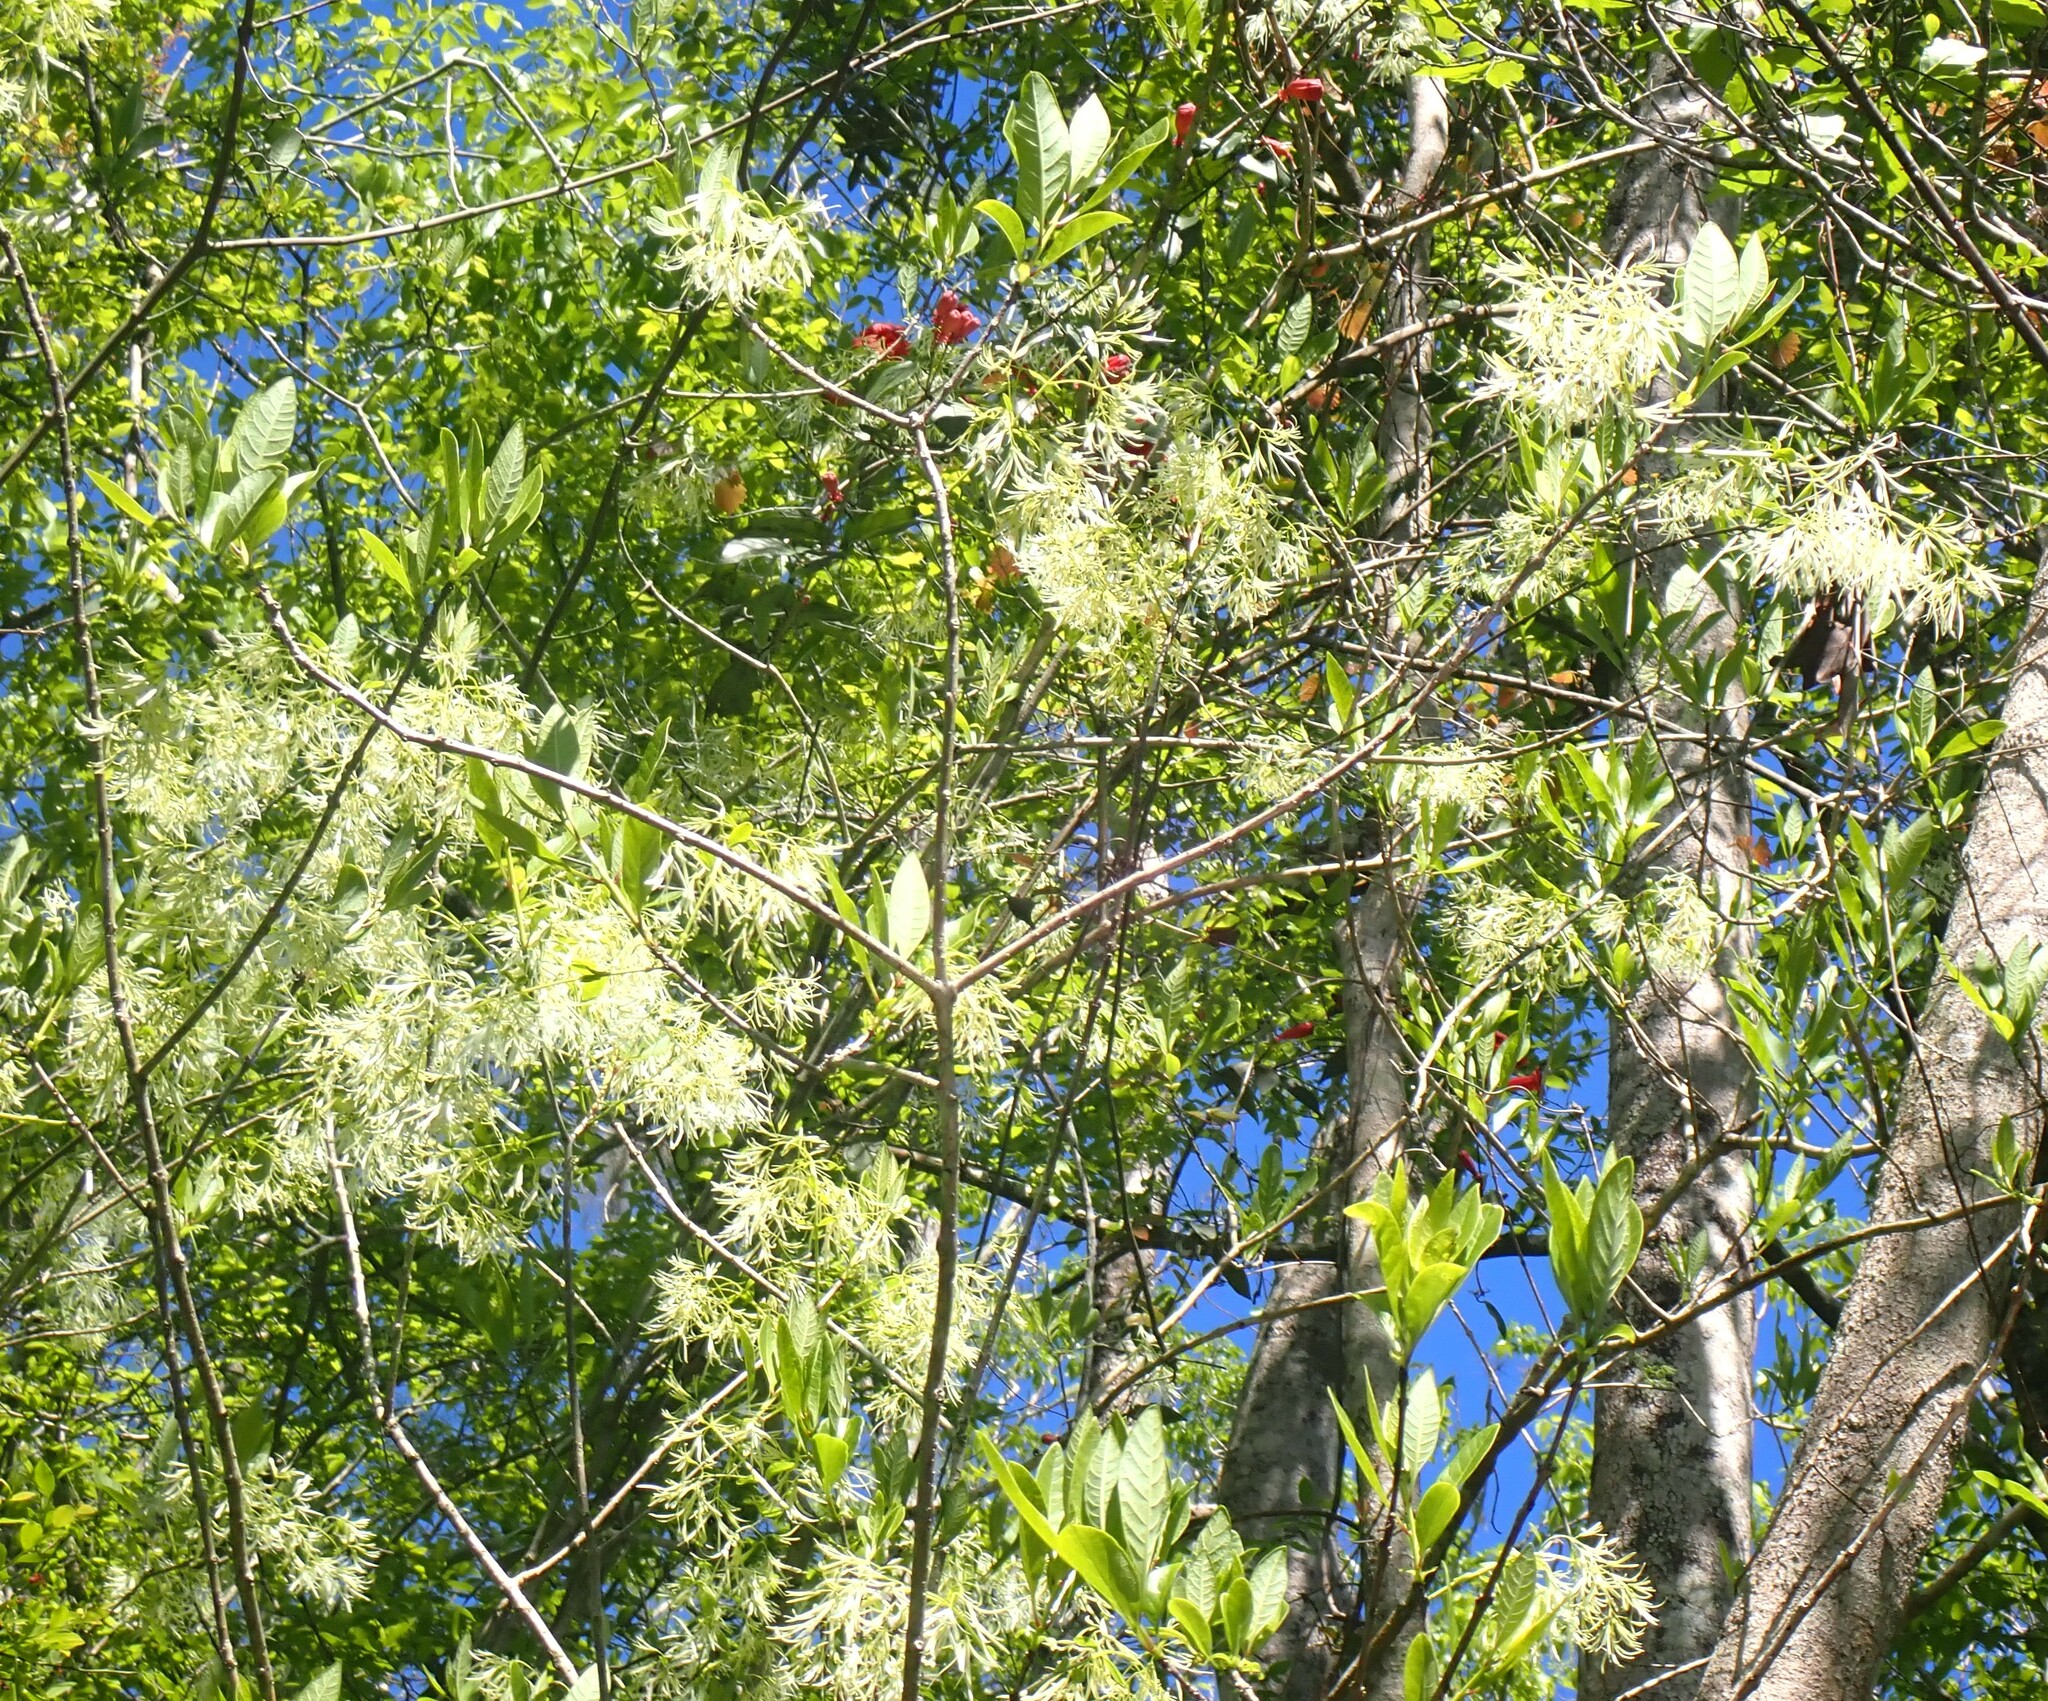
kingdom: Plantae
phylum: Tracheophyta
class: Magnoliopsida
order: Lamiales
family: Oleaceae
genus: Chionanthus
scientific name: Chionanthus virginicus
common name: American fringetree
